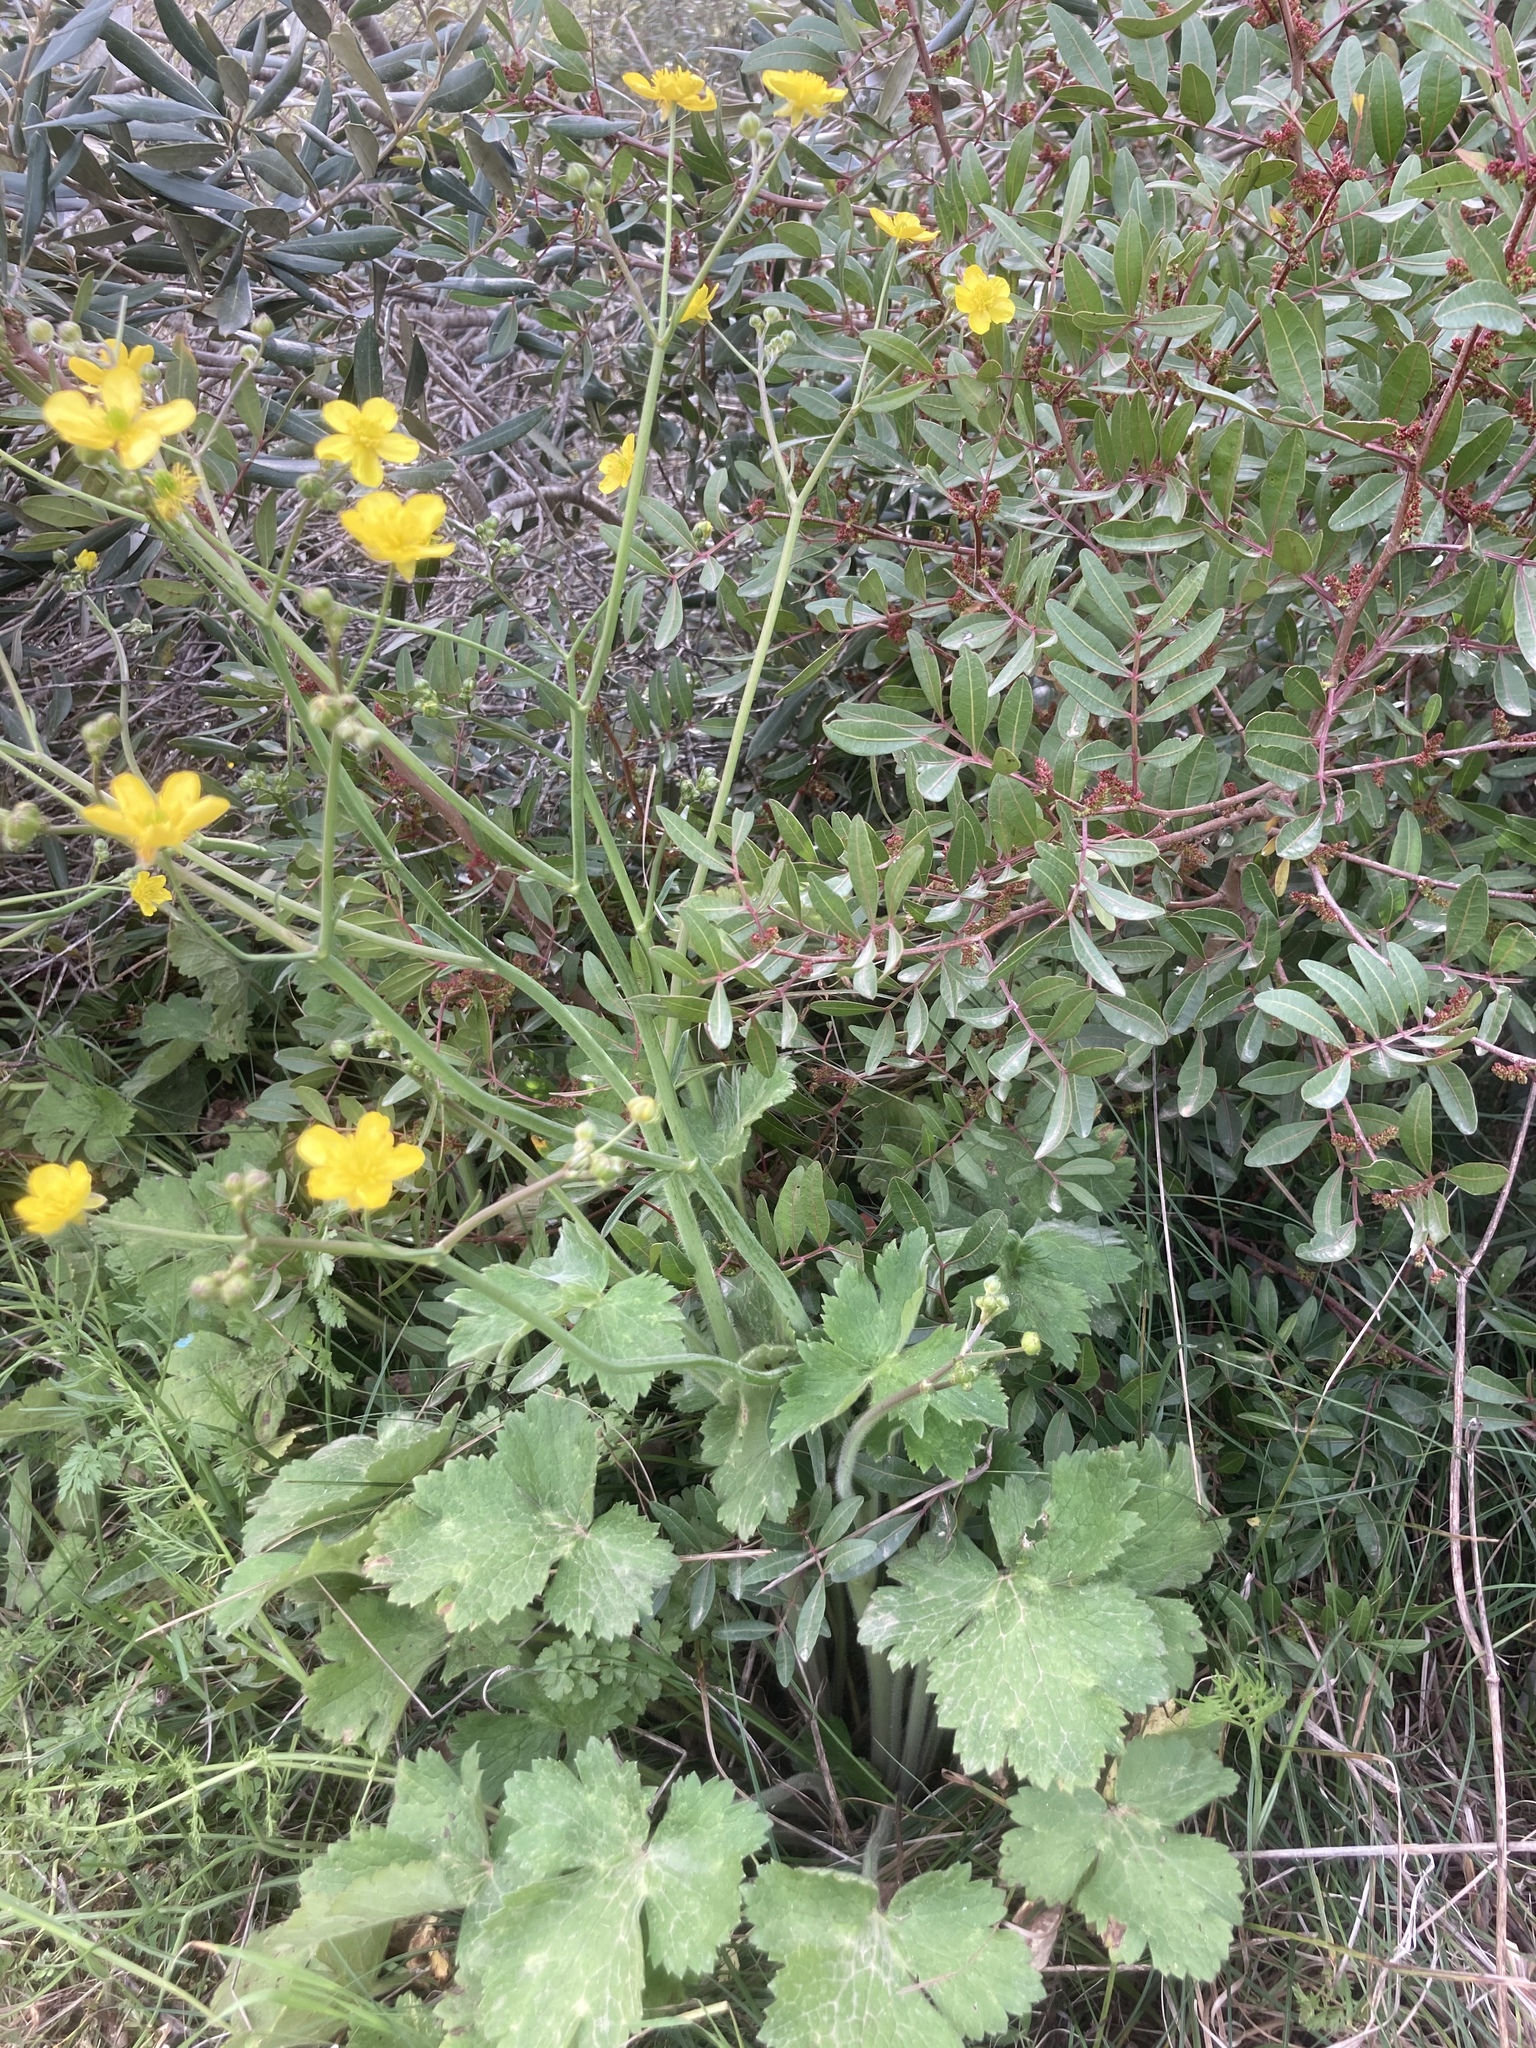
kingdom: Plantae
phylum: Tracheophyta
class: Magnoliopsida
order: Sapindales
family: Anacardiaceae
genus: Pistacia
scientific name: Pistacia lentiscus
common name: Lentisk
